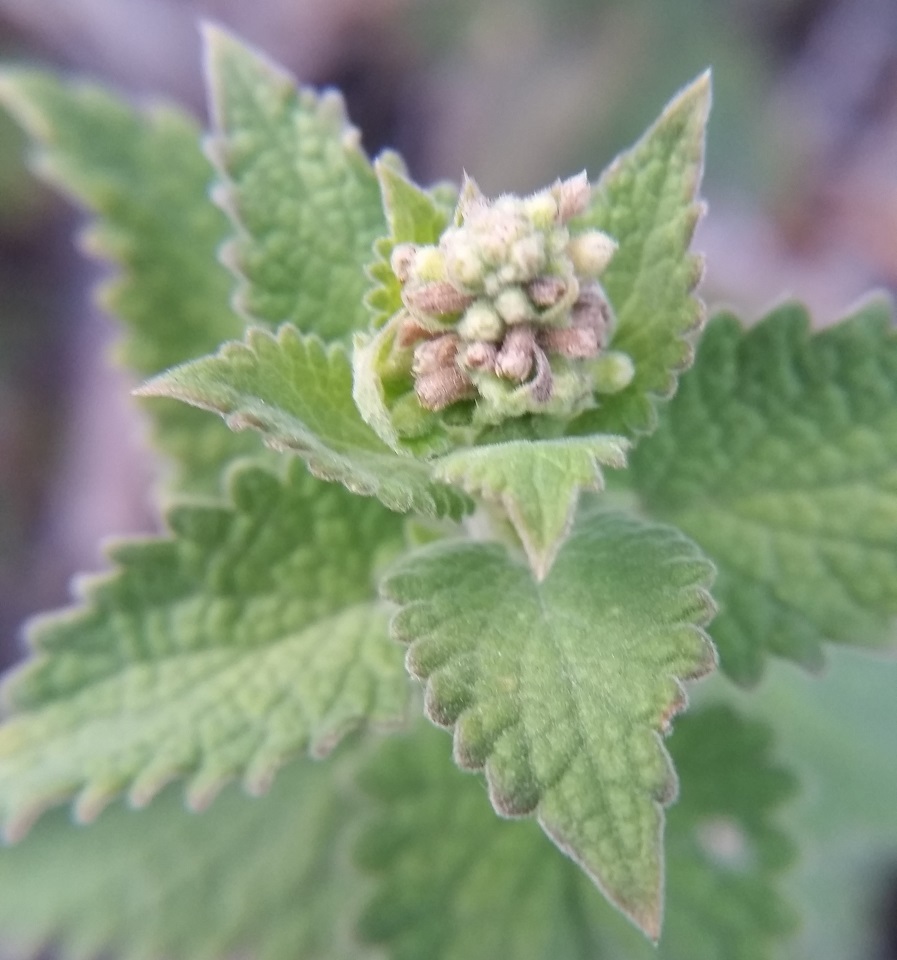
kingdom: Plantae
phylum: Tracheophyta
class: Magnoliopsida
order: Lamiales
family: Lamiaceae
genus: Nepeta
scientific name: Nepeta cataria
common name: Catnip
